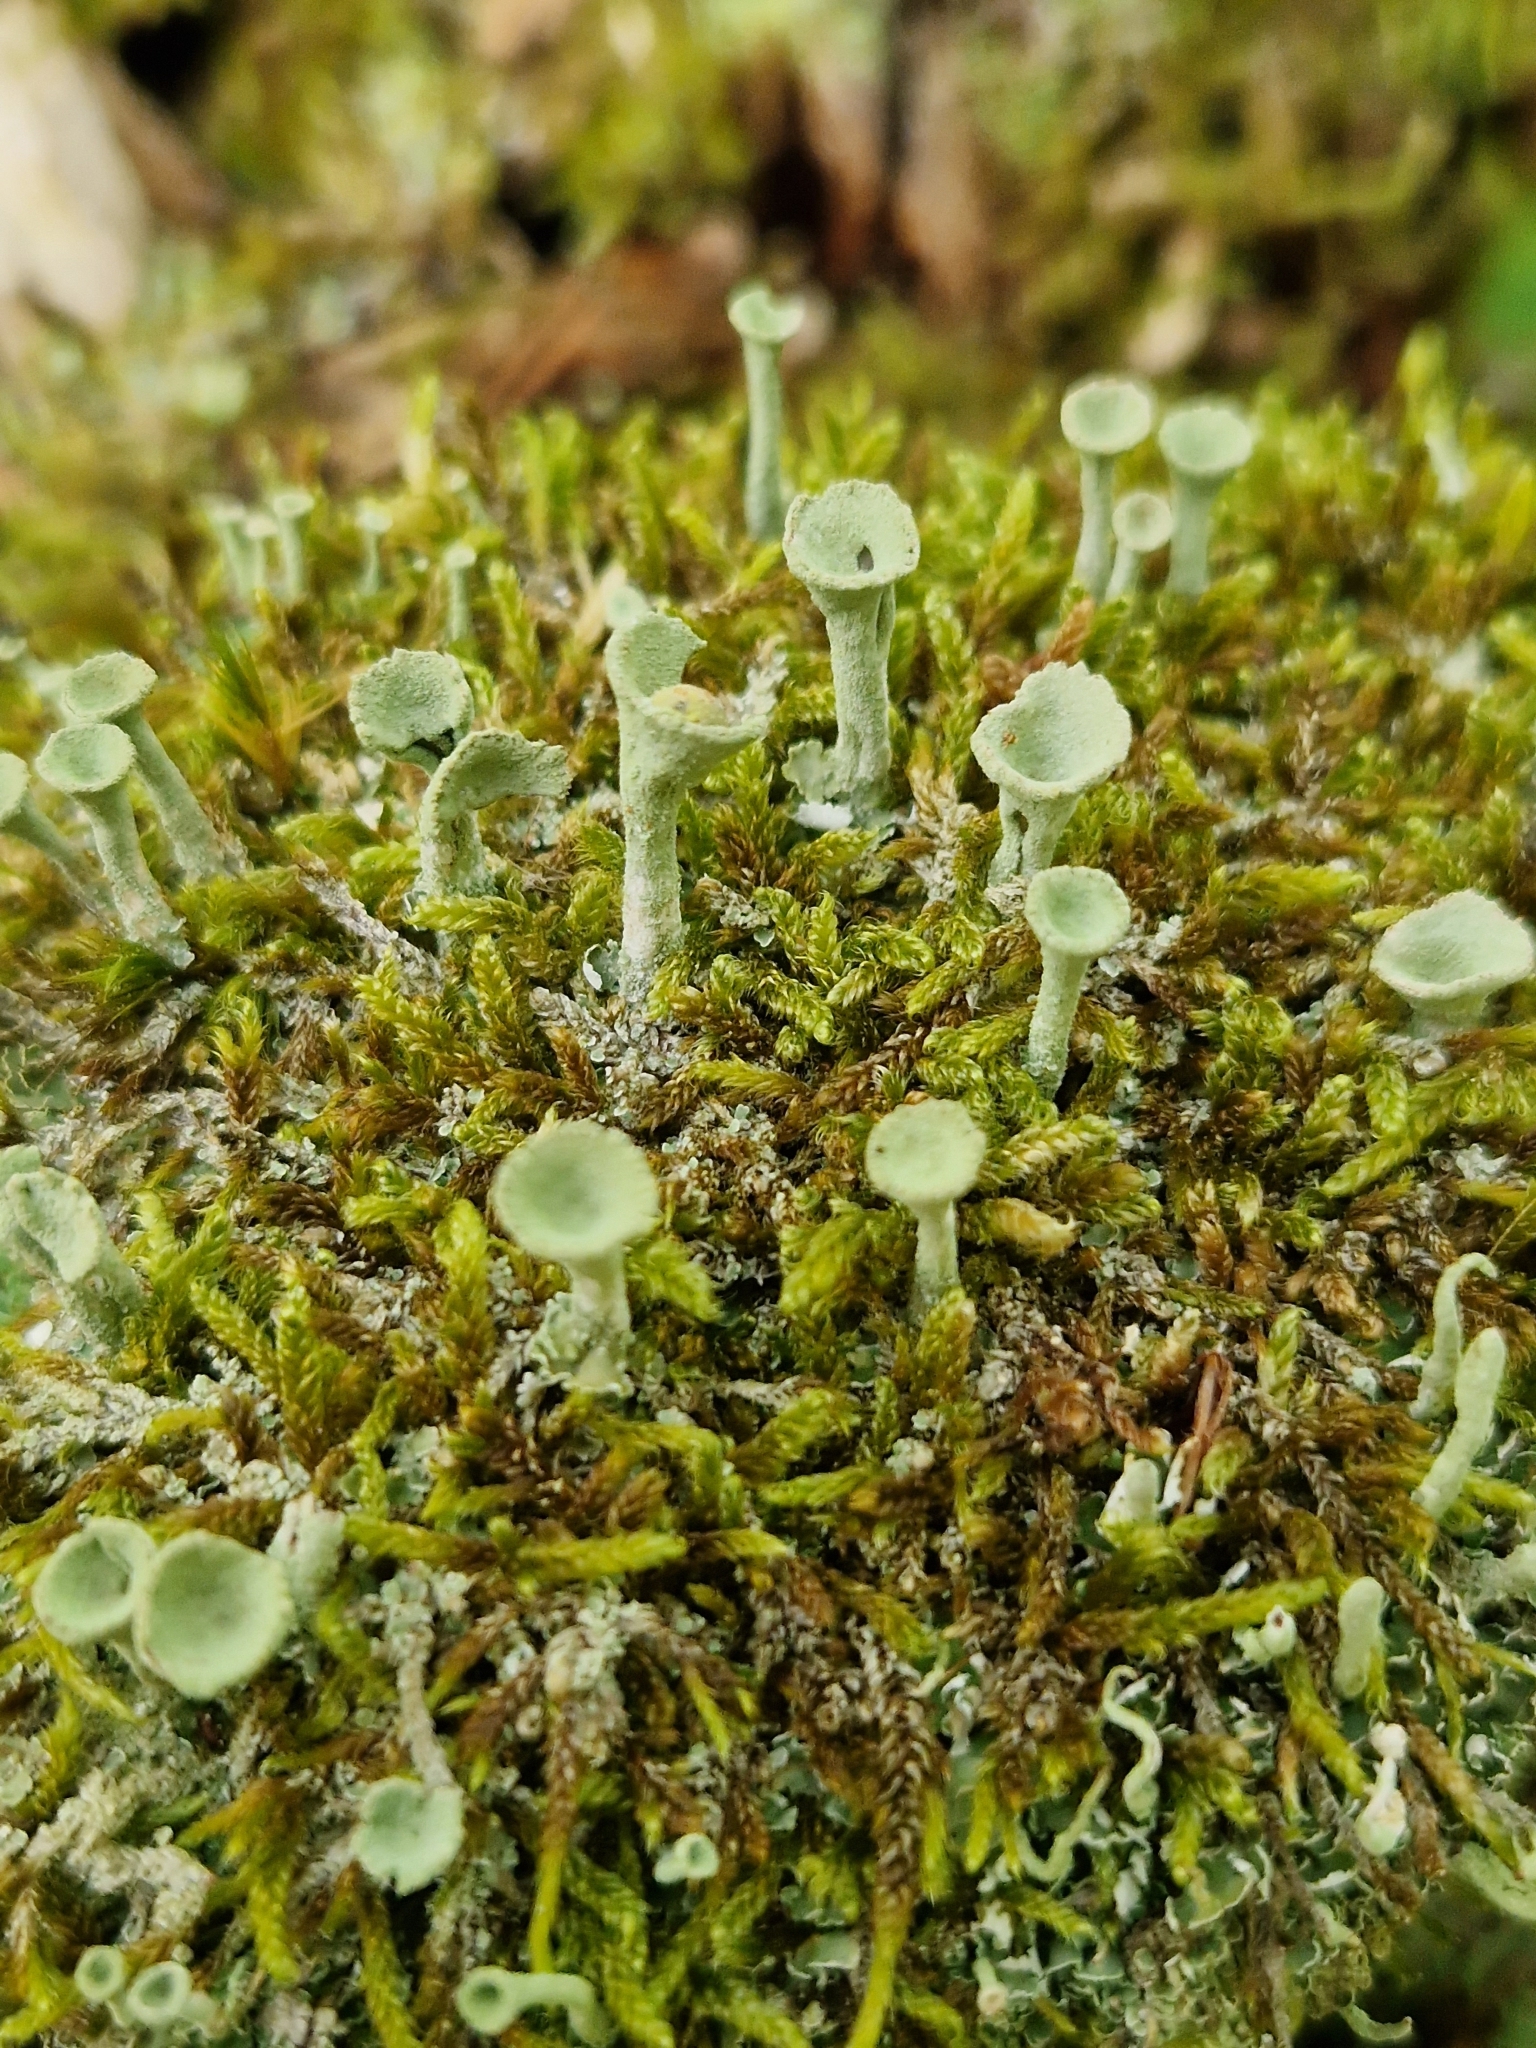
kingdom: Fungi
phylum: Ascomycota
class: Lecanoromycetes
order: Lecanorales
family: Cladoniaceae
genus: Cladonia
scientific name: Cladonia fimbriata
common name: Powdered trumpet lichen
